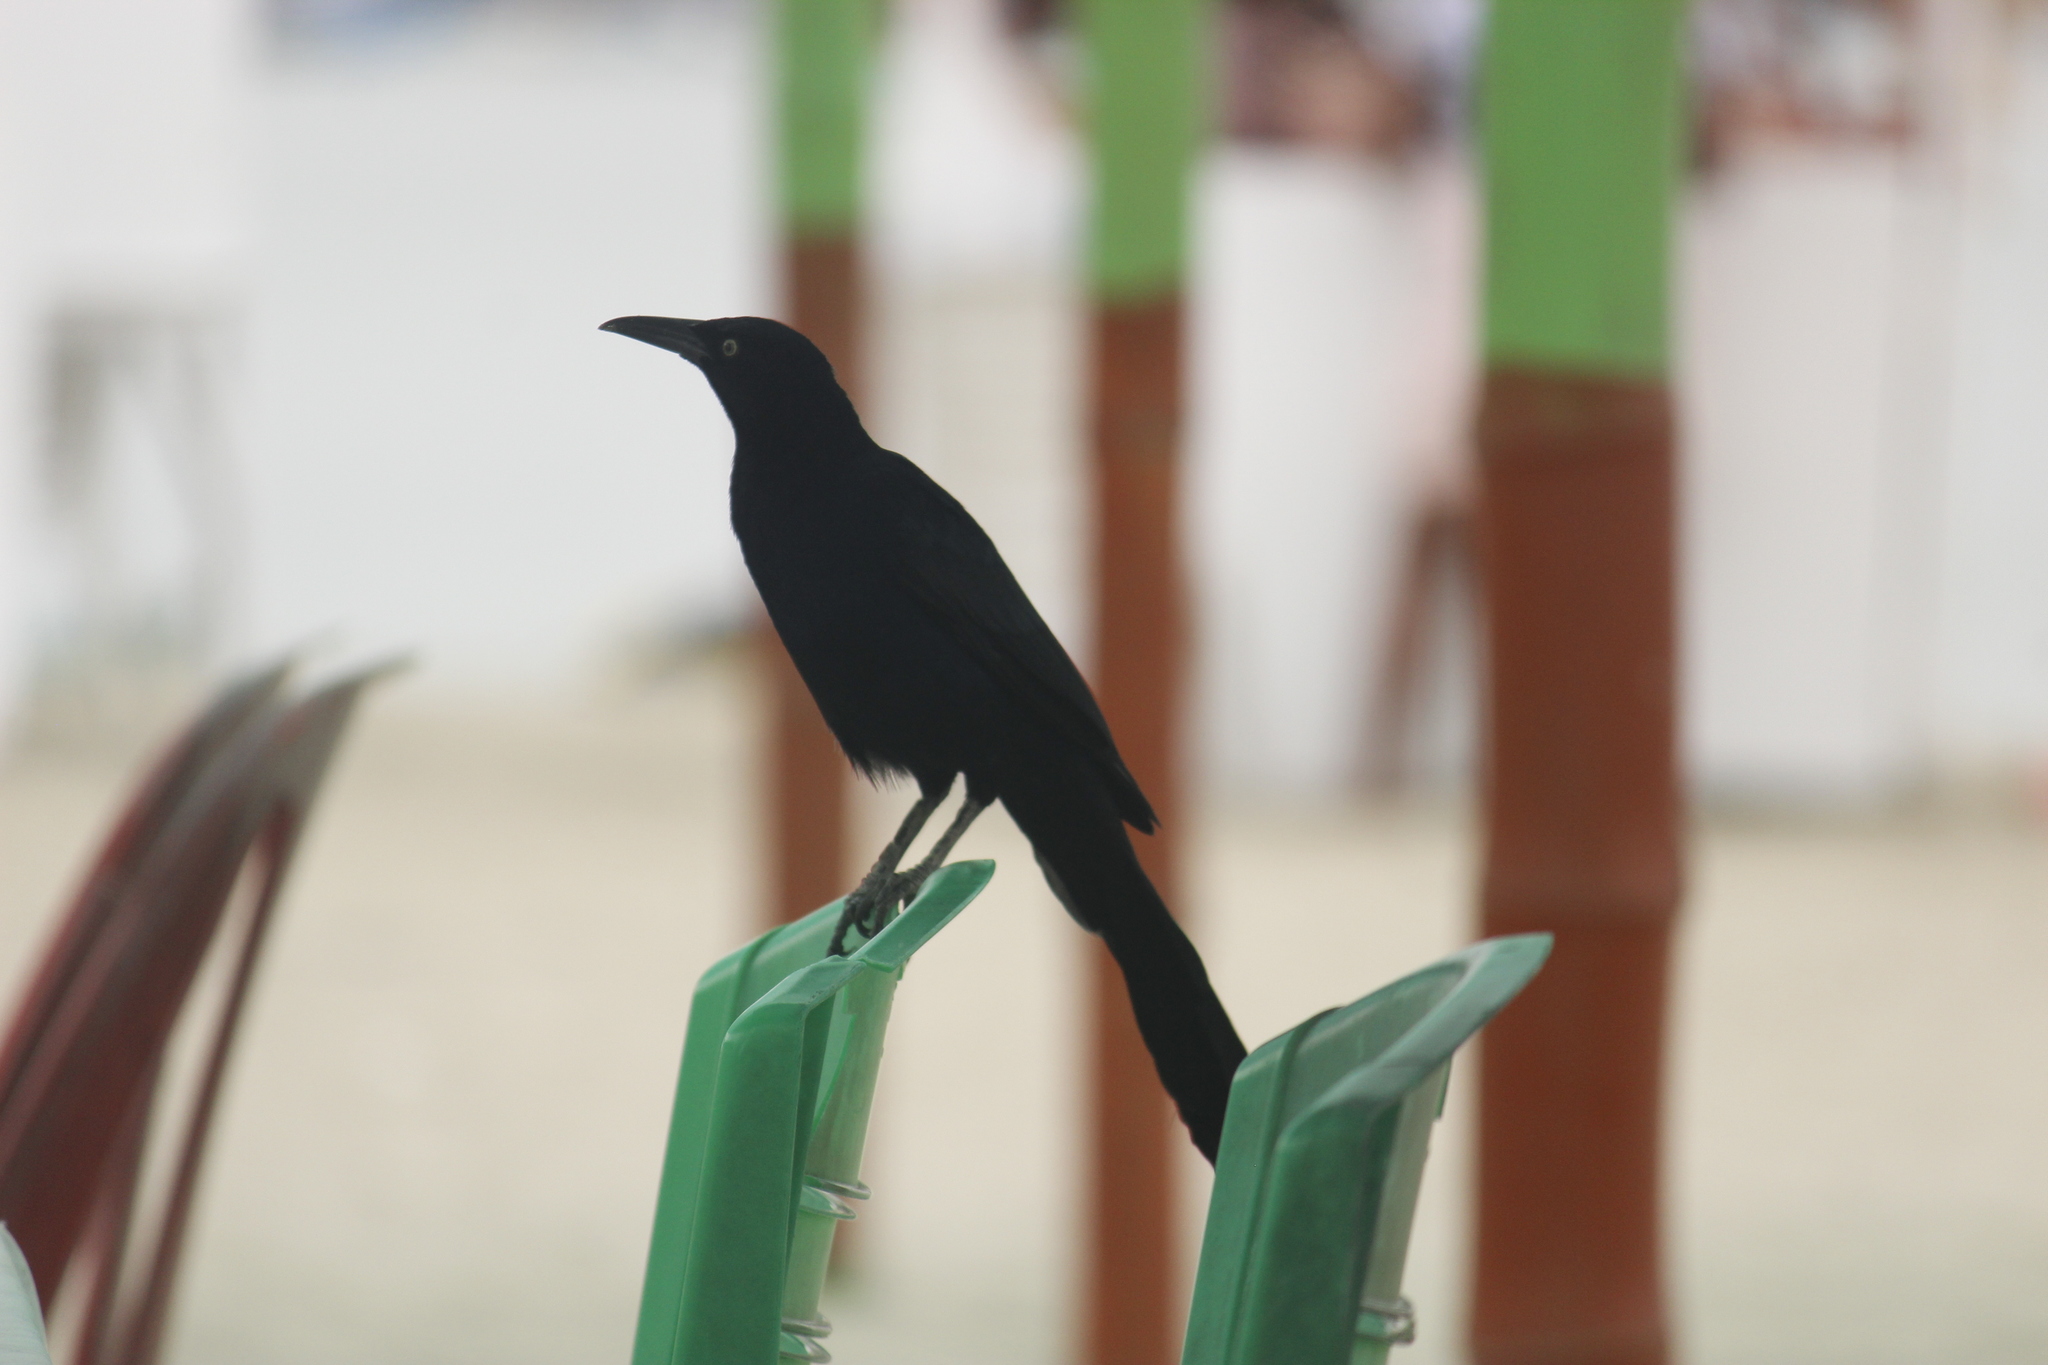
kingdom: Animalia
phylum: Chordata
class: Aves
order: Passeriformes
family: Icteridae
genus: Quiscalus
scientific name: Quiscalus mexicanus
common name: Great-tailed grackle
